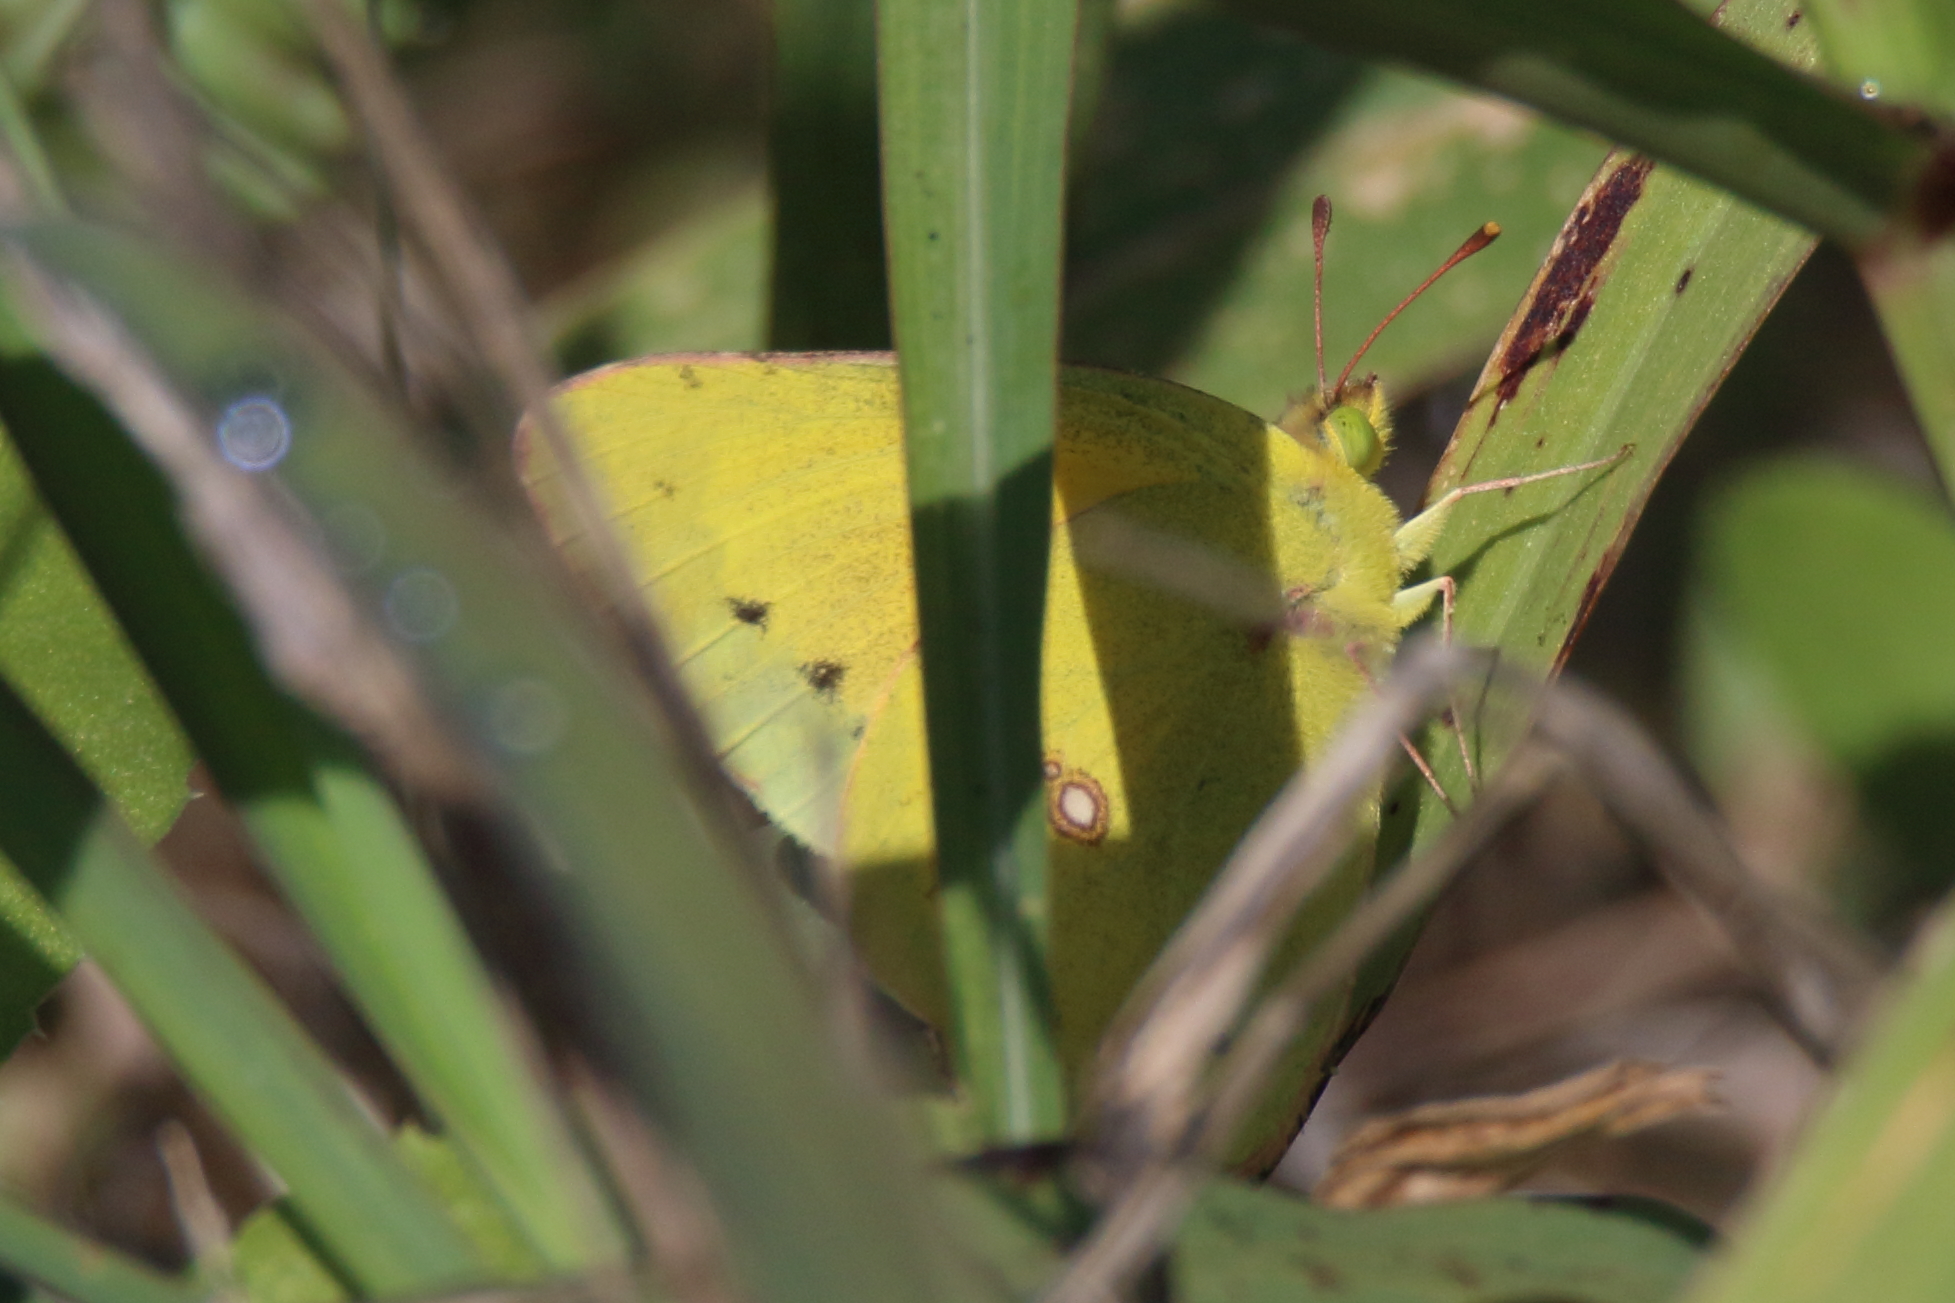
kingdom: Animalia
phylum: Arthropoda
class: Insecta
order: Lepidoptera
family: Pieridae
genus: Colias
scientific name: Colias eurytheme
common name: Alfalfa butterfly
